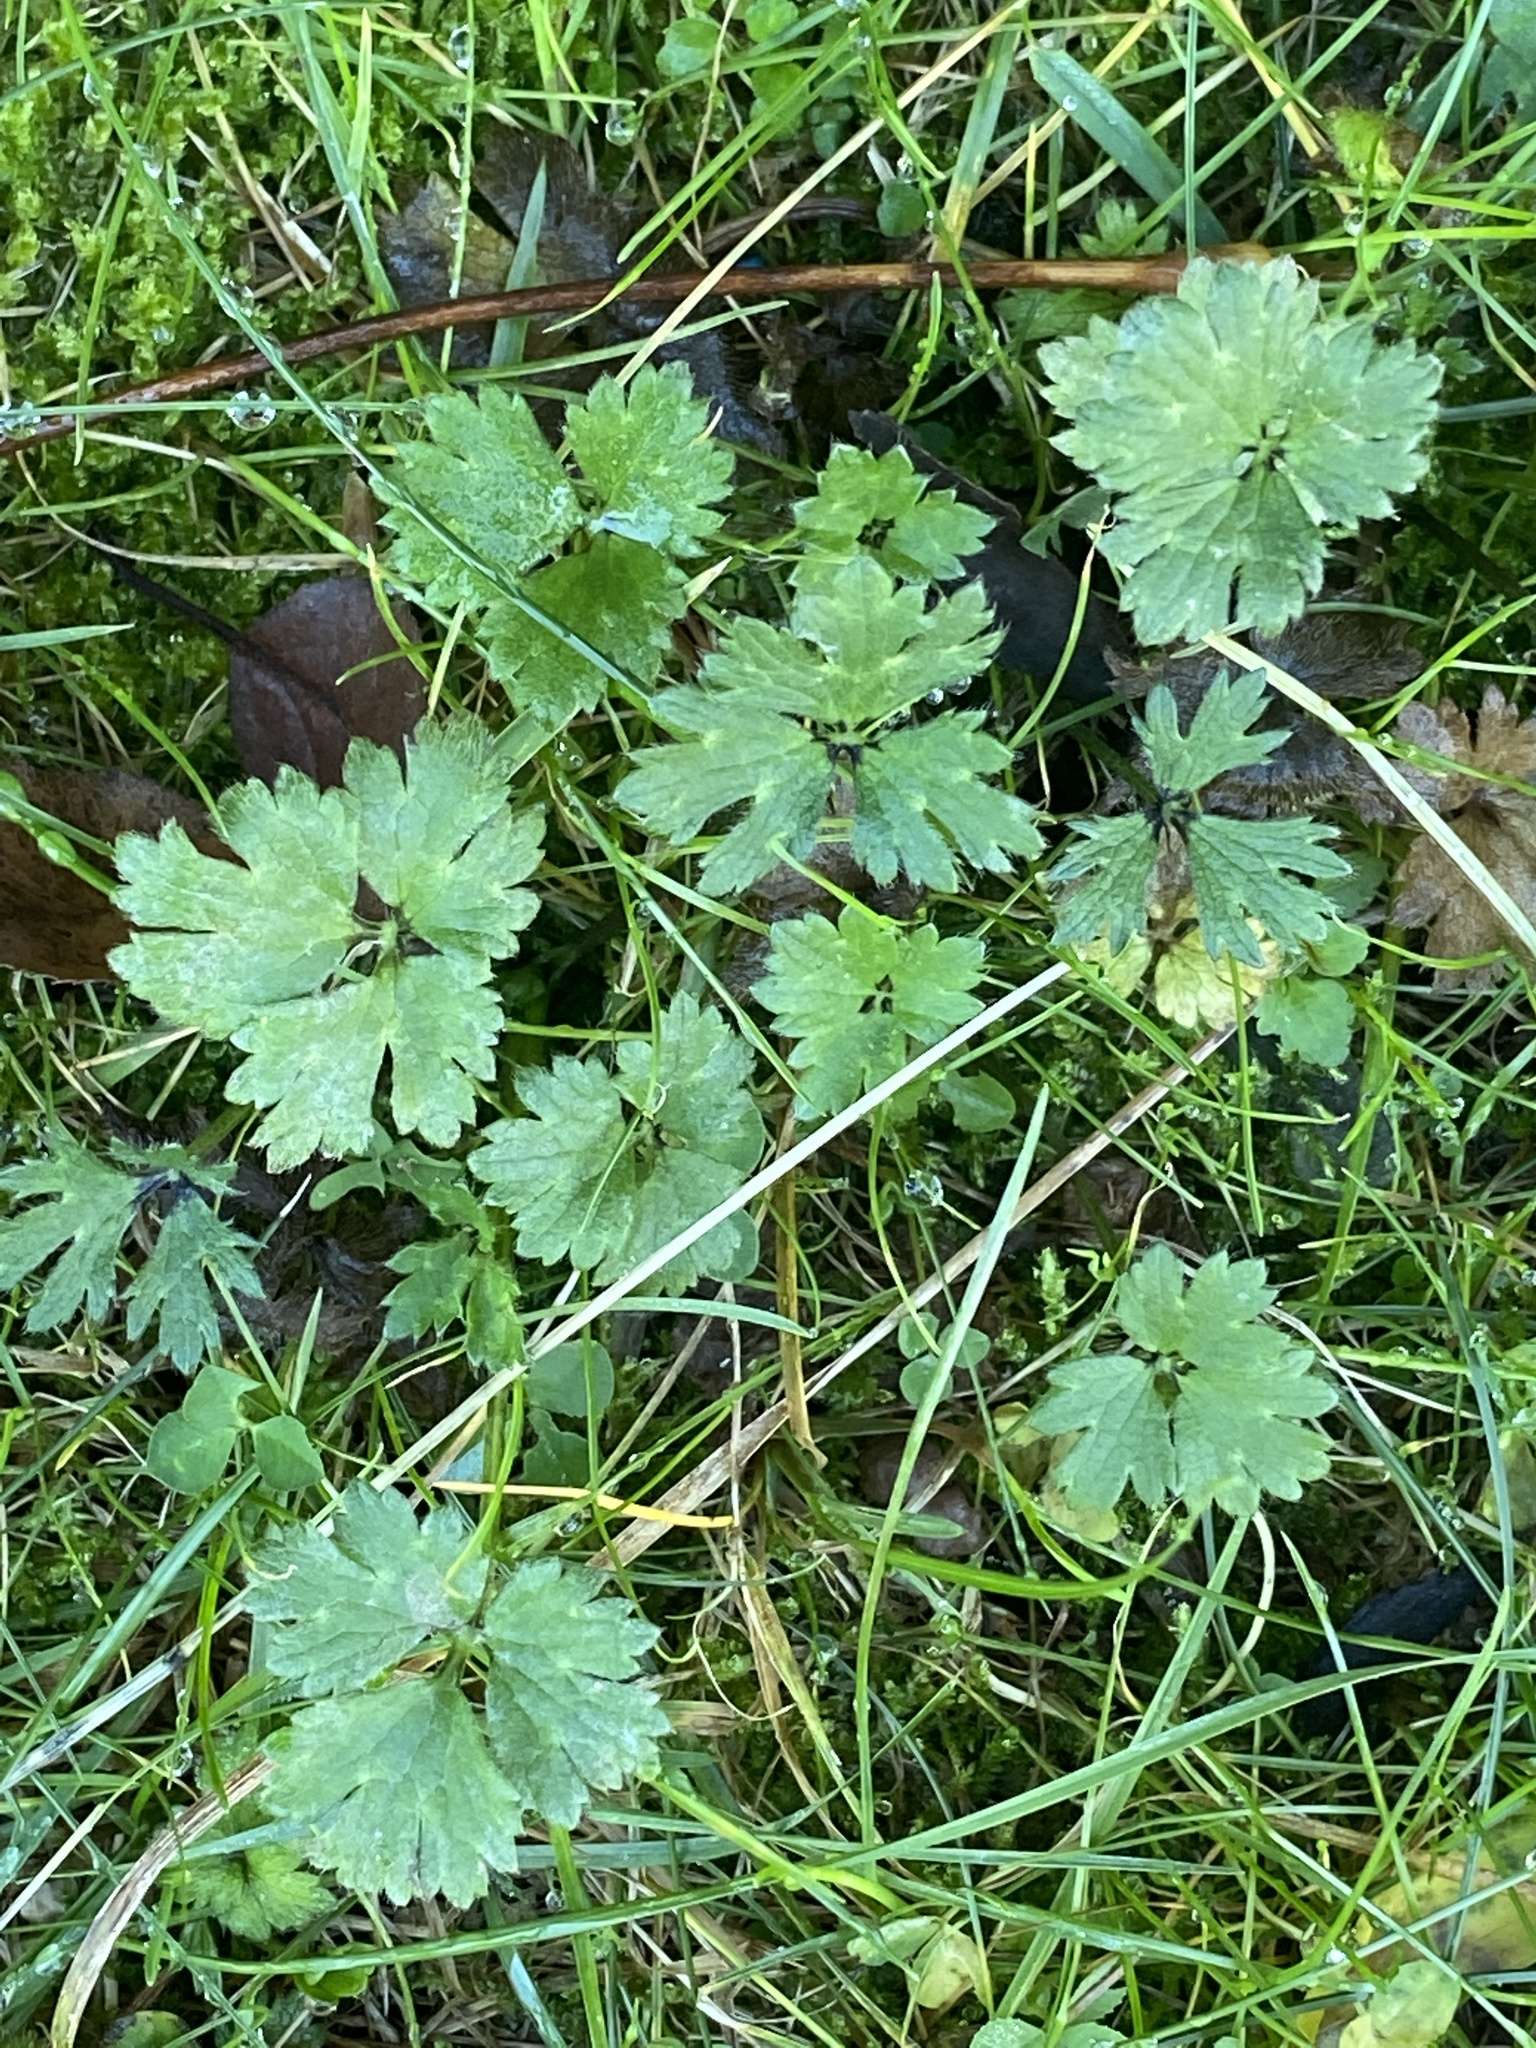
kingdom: Plantae
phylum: Tracheophyta
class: Magnoliopsida
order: Ranunculales
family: Ranunculaceae
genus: Ranunculus
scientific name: Ranunculus repens
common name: Creeping buttercup
